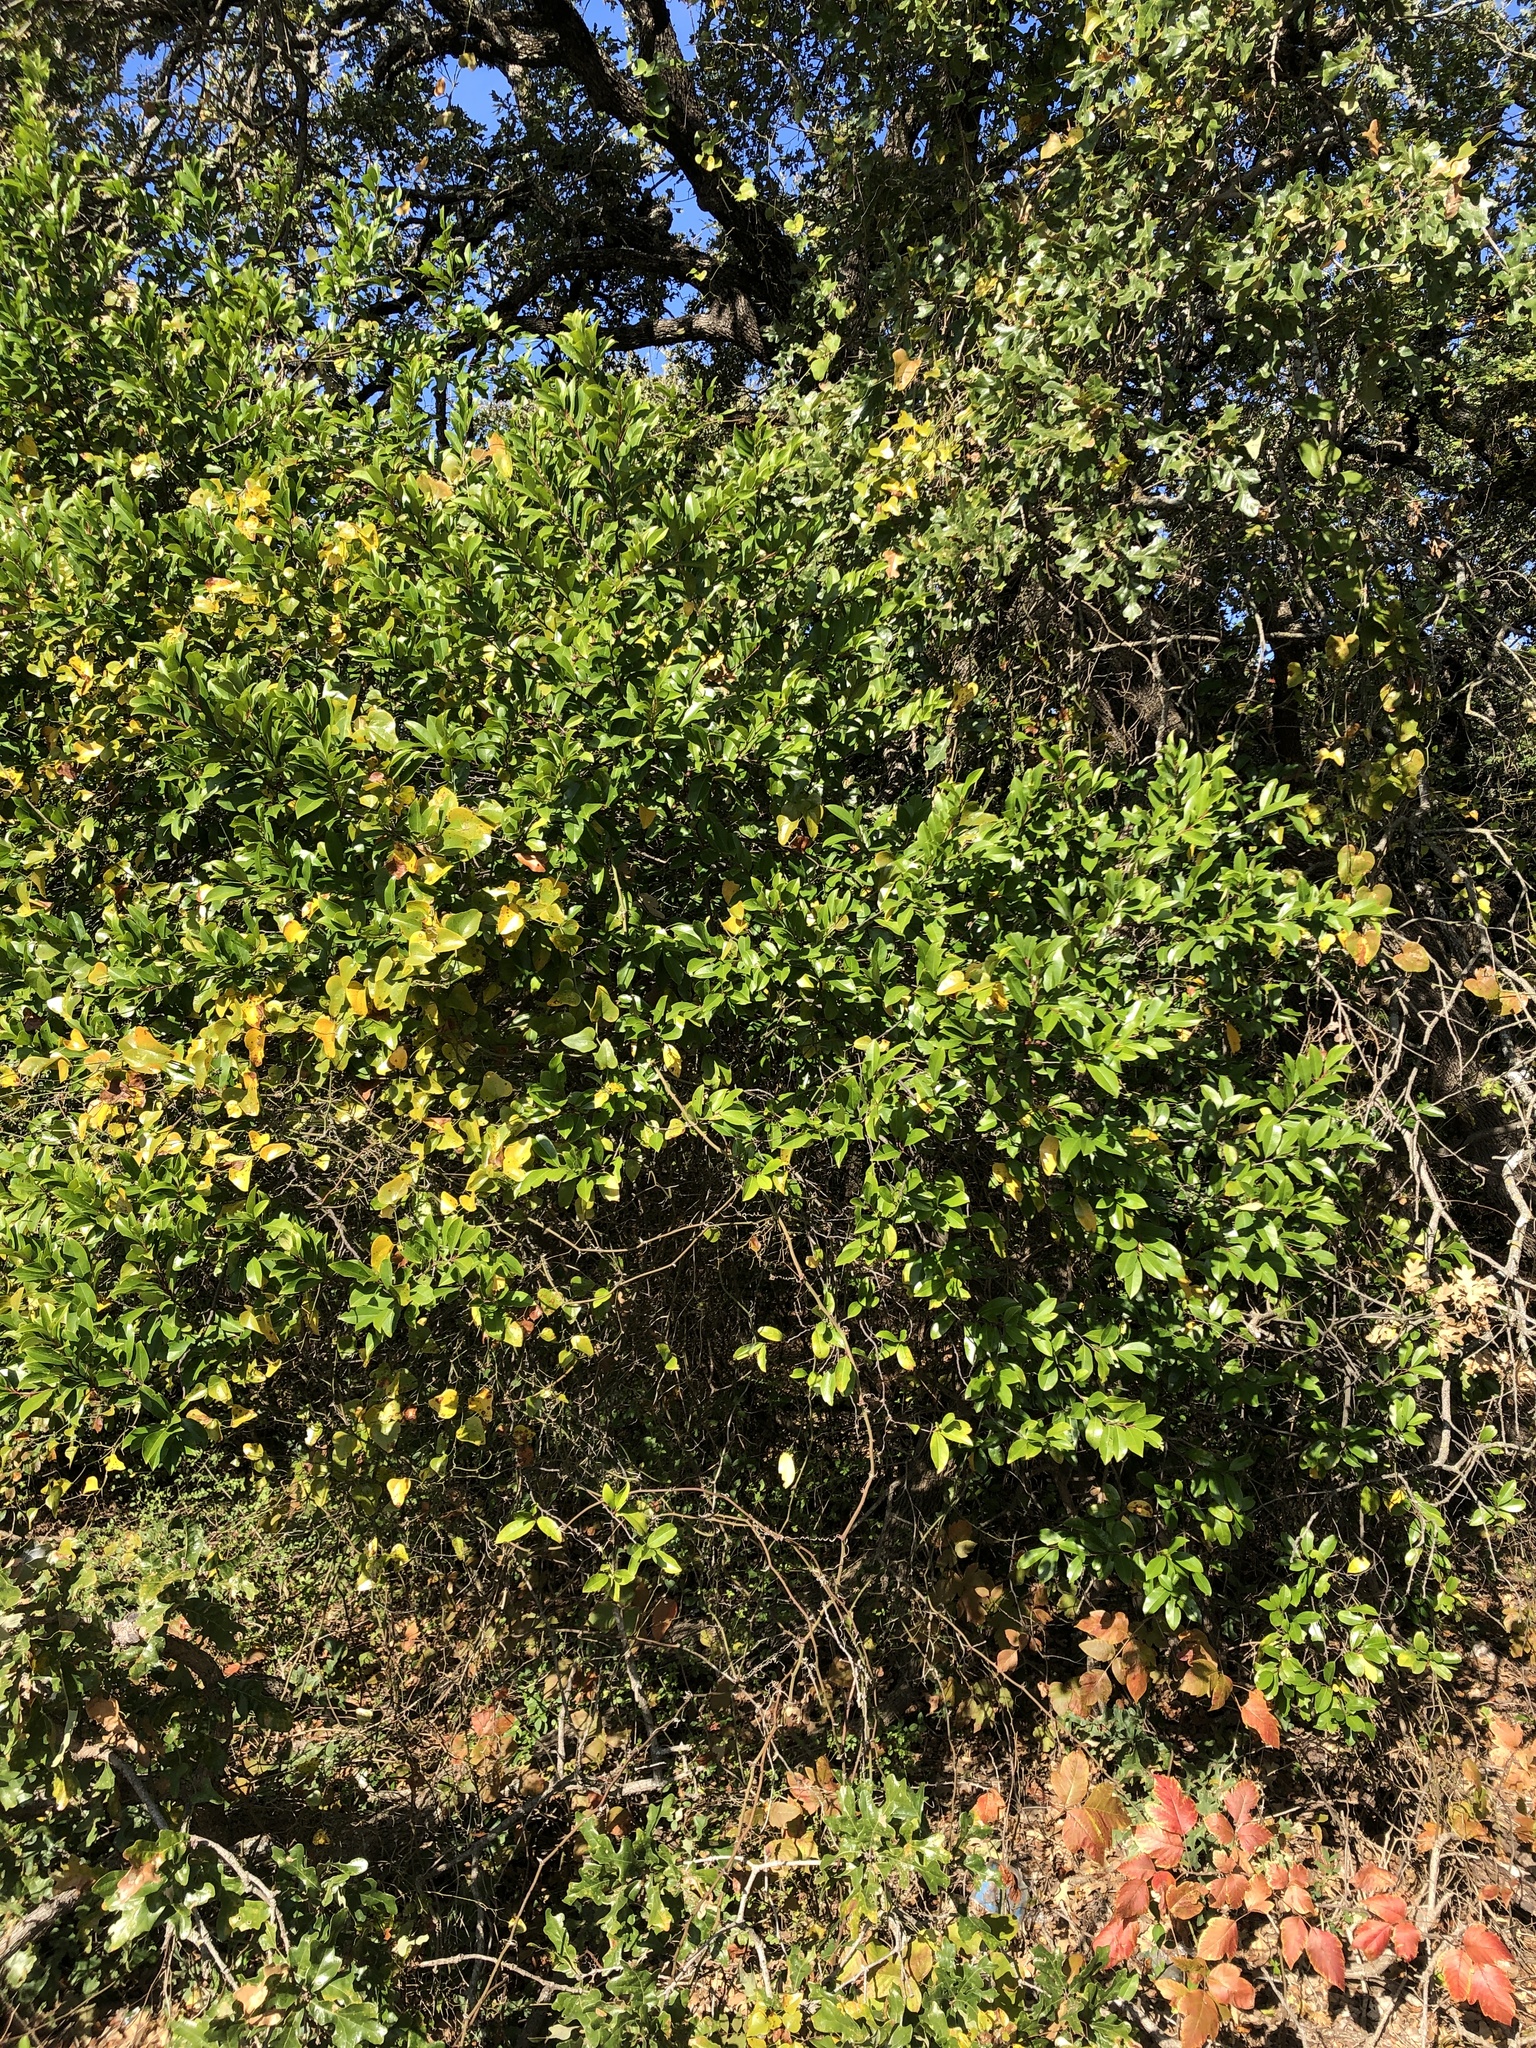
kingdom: Plantae
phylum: Tracheophyta
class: Magnoliopsida
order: Rosales
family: Rosaceae
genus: Prunus
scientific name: Prunus caroliniana
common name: Carolina laurel cherry
